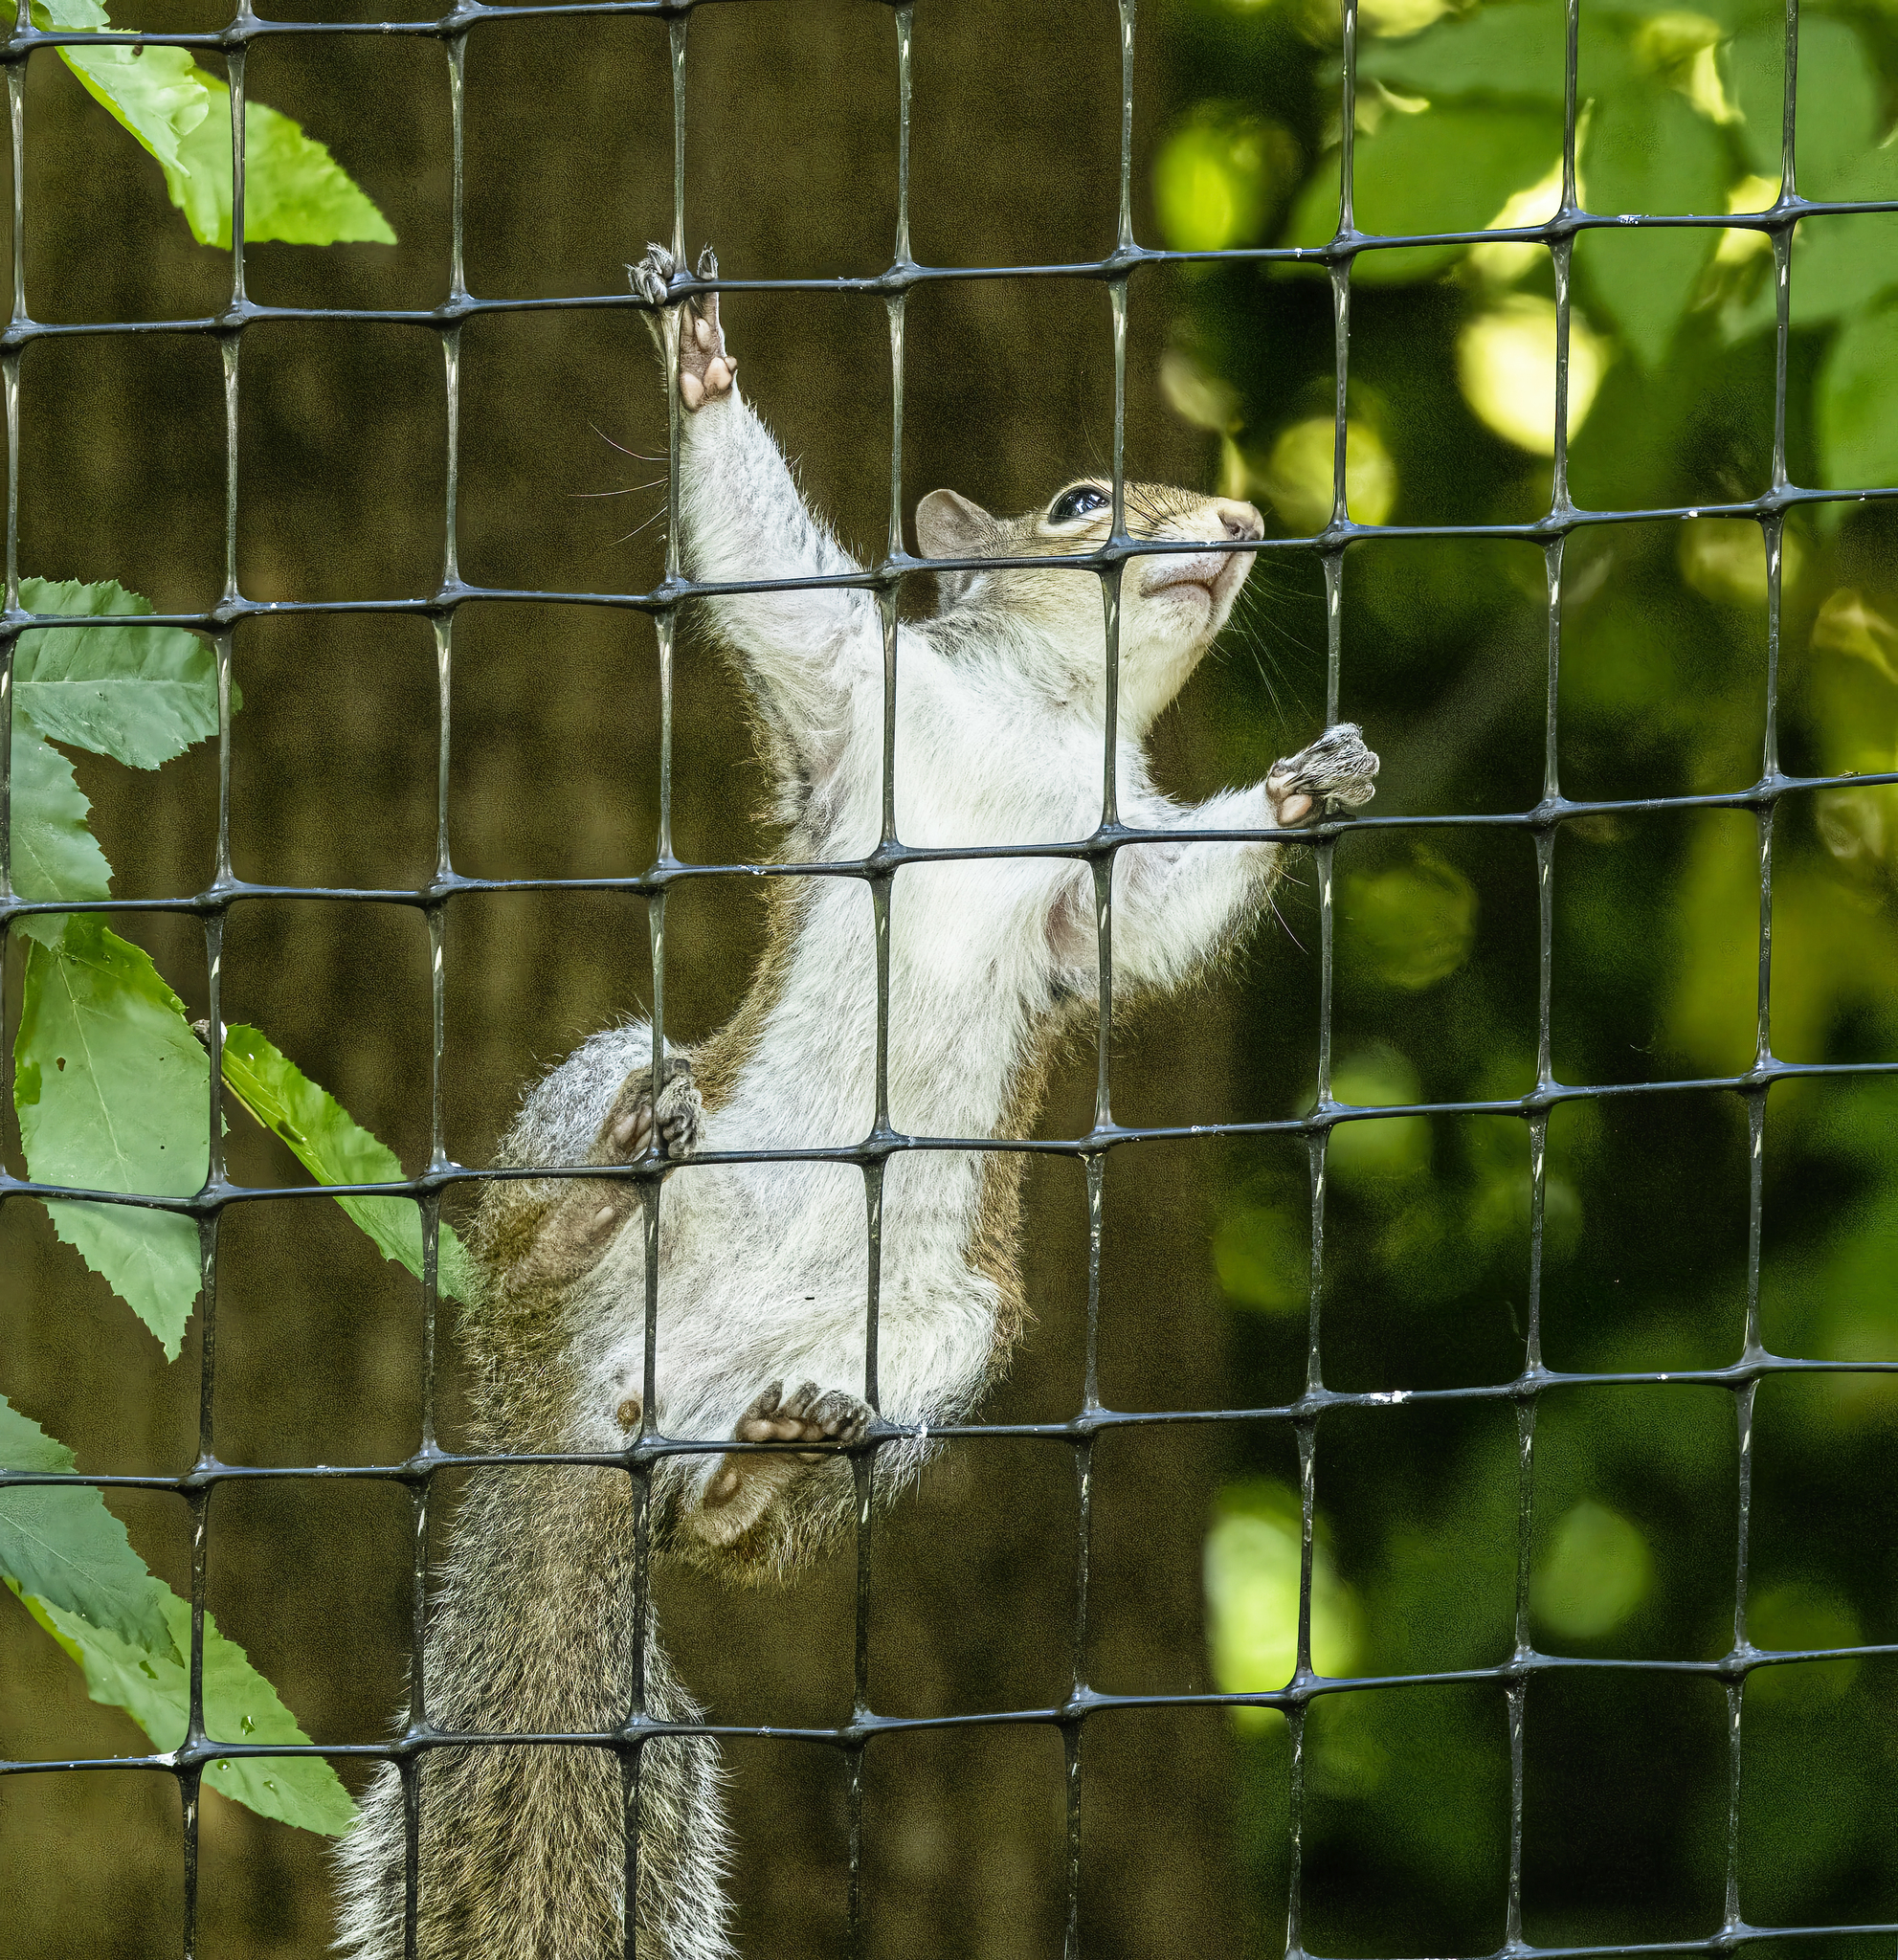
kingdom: Animalia
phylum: Chordata
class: Mammalia
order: Rodentia
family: Sciuridae
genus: Sciurus
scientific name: Sciurus carolinensis
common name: Eastern gray squirrel
